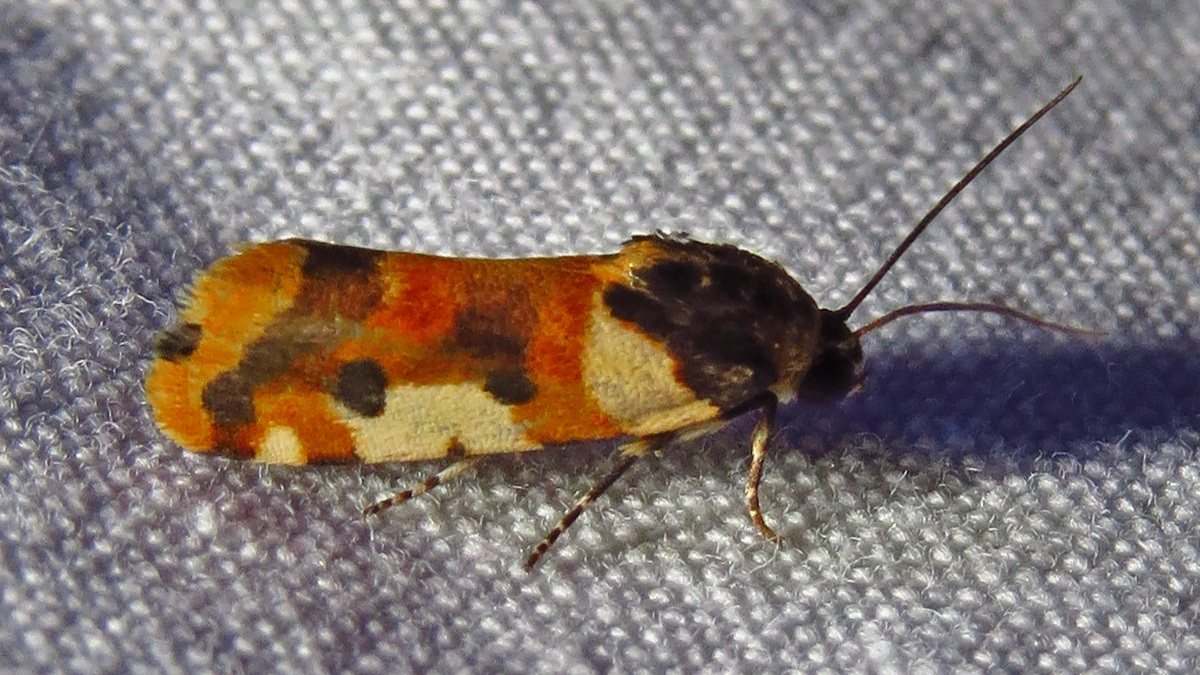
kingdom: Animalia
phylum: Arthropoda
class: Insecta
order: Lepidoptera
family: Noctuidae
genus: Acontia
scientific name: Acontia dama
